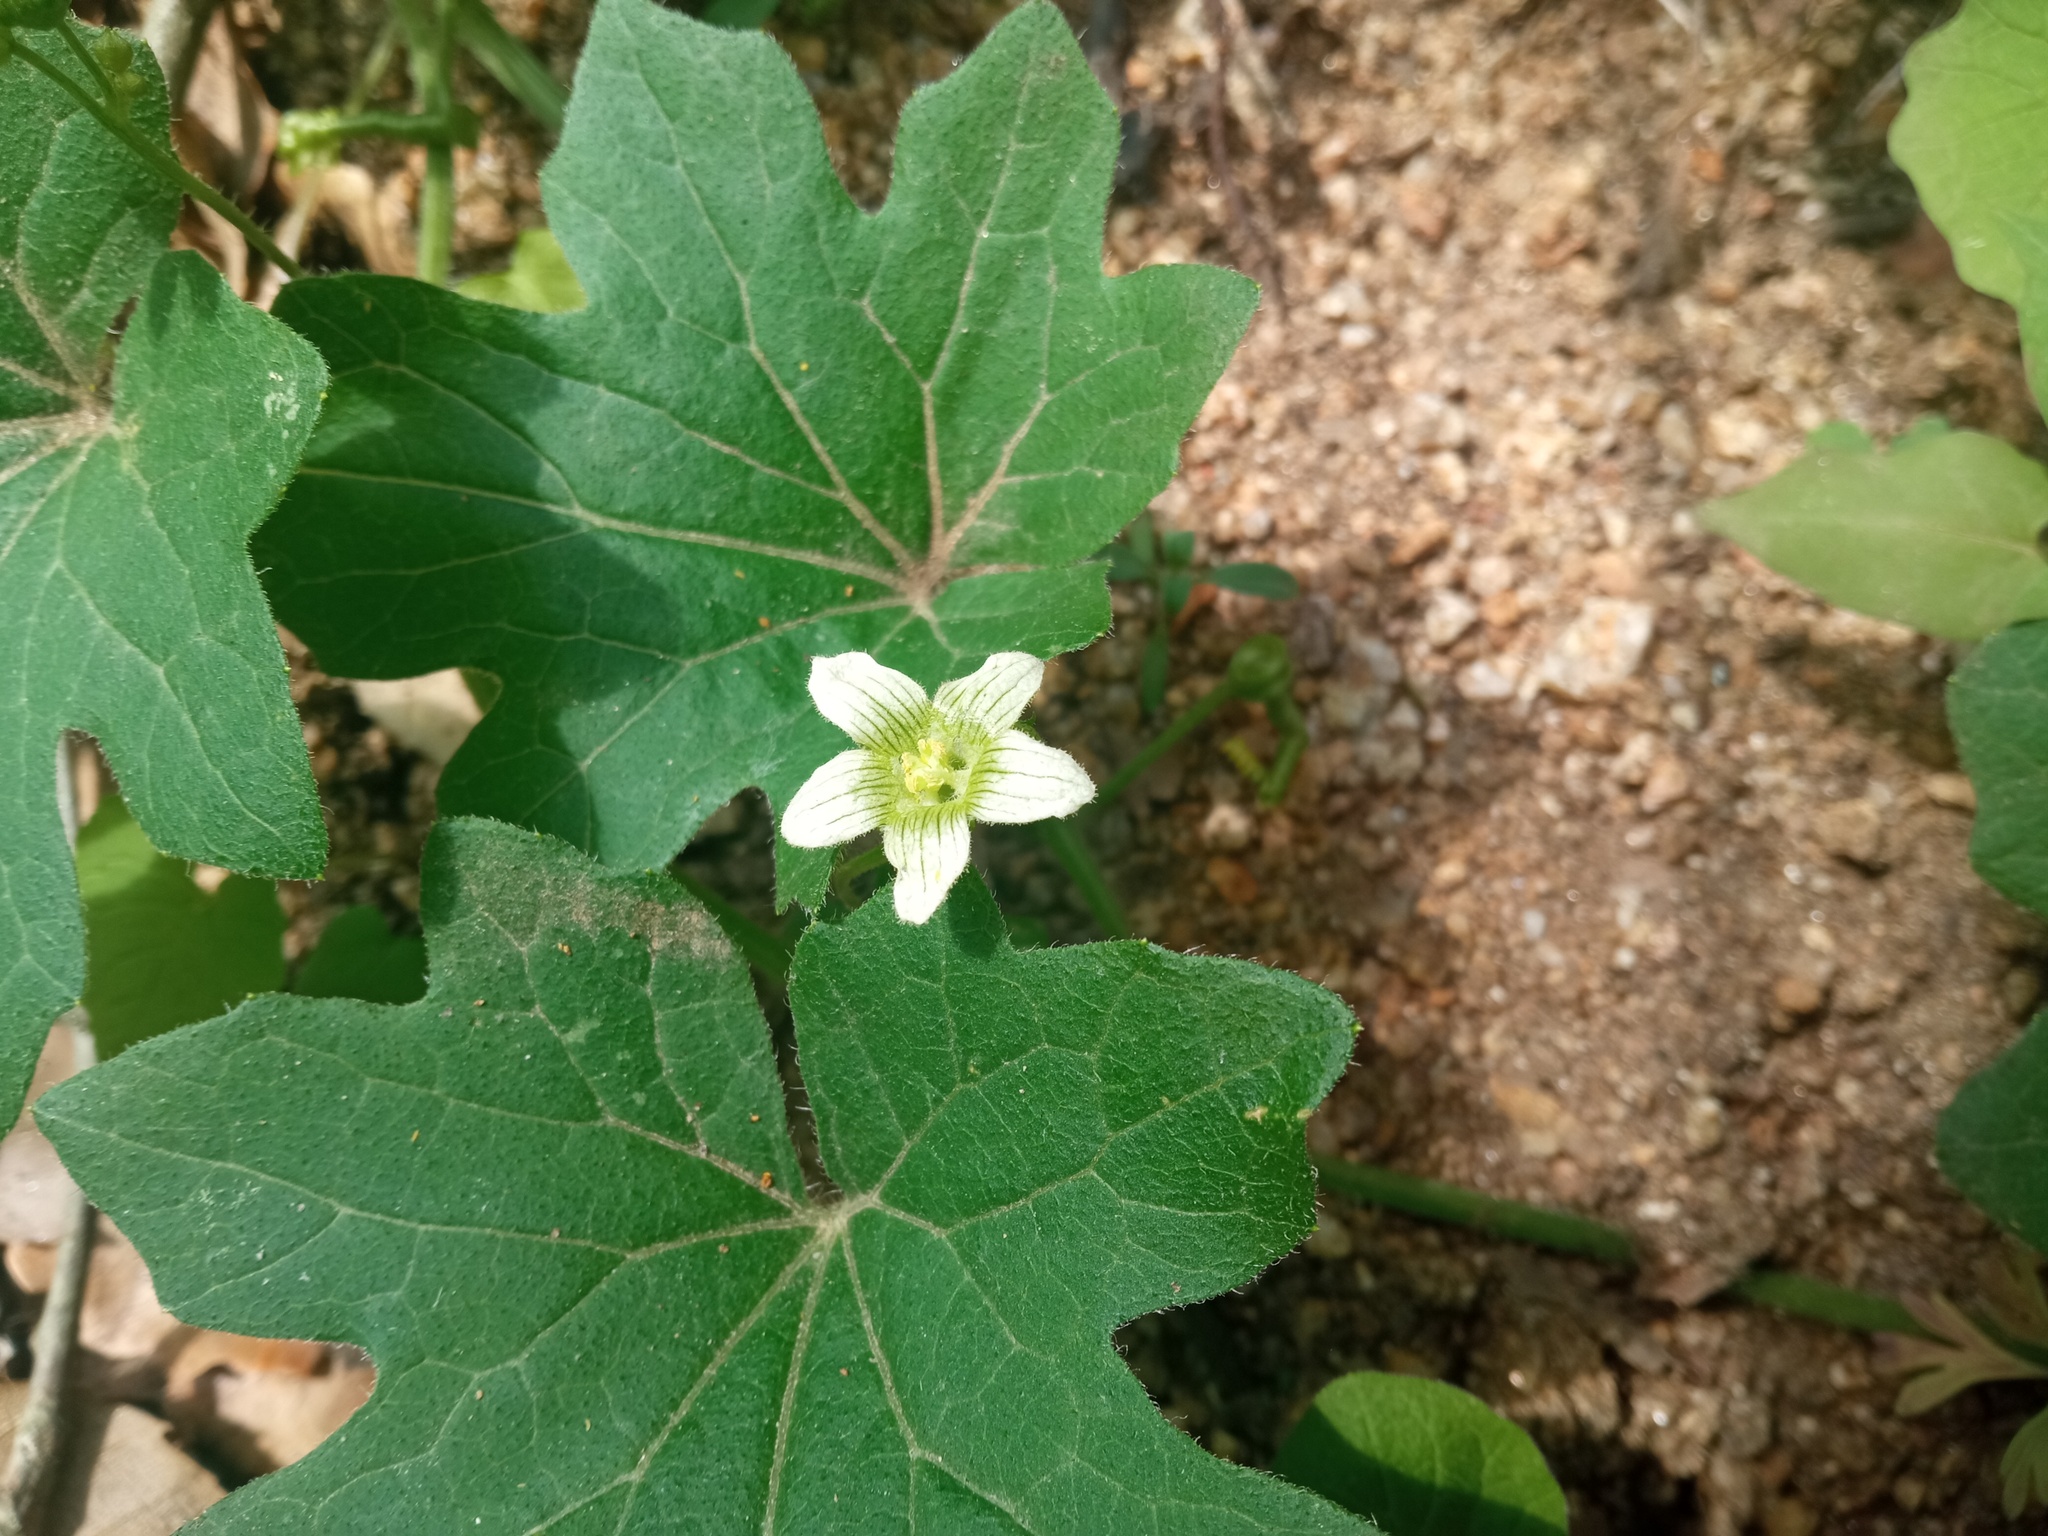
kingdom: Plantae
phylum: Tracheophyta
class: Magnoliopsida
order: Cucurbitales
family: Cucurbitaceae
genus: Bryonia
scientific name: Bryonia dioica
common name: White bryony
